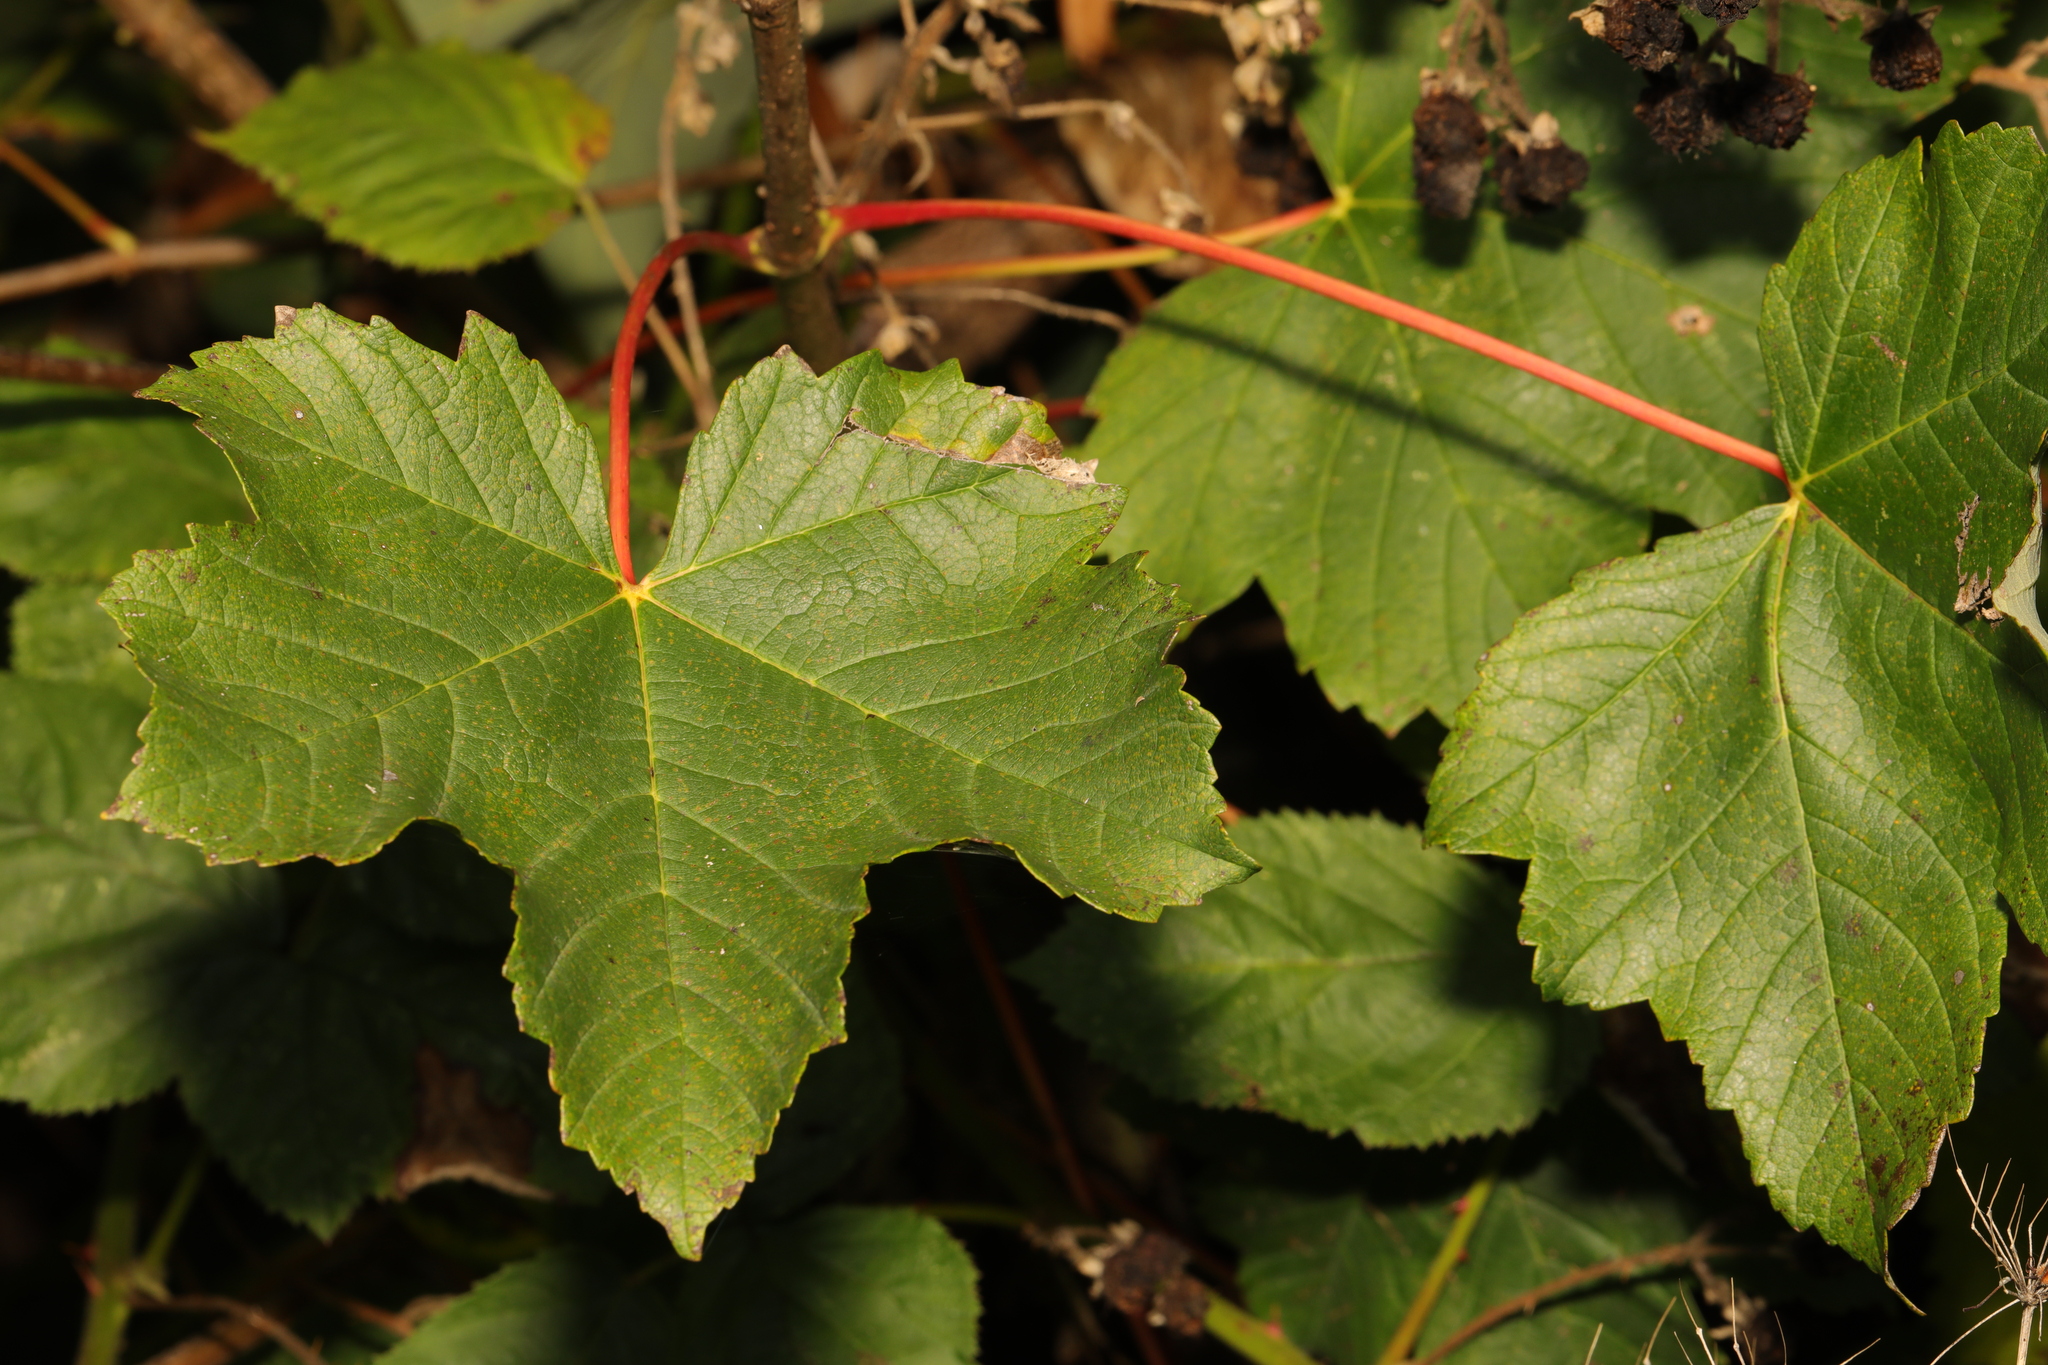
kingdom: Plantae
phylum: Tracheophyta
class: Magnoliopsida
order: Sapindales
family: Sapindaceae
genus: Acer
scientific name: Acer pseudoplatanus
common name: Sycamore
